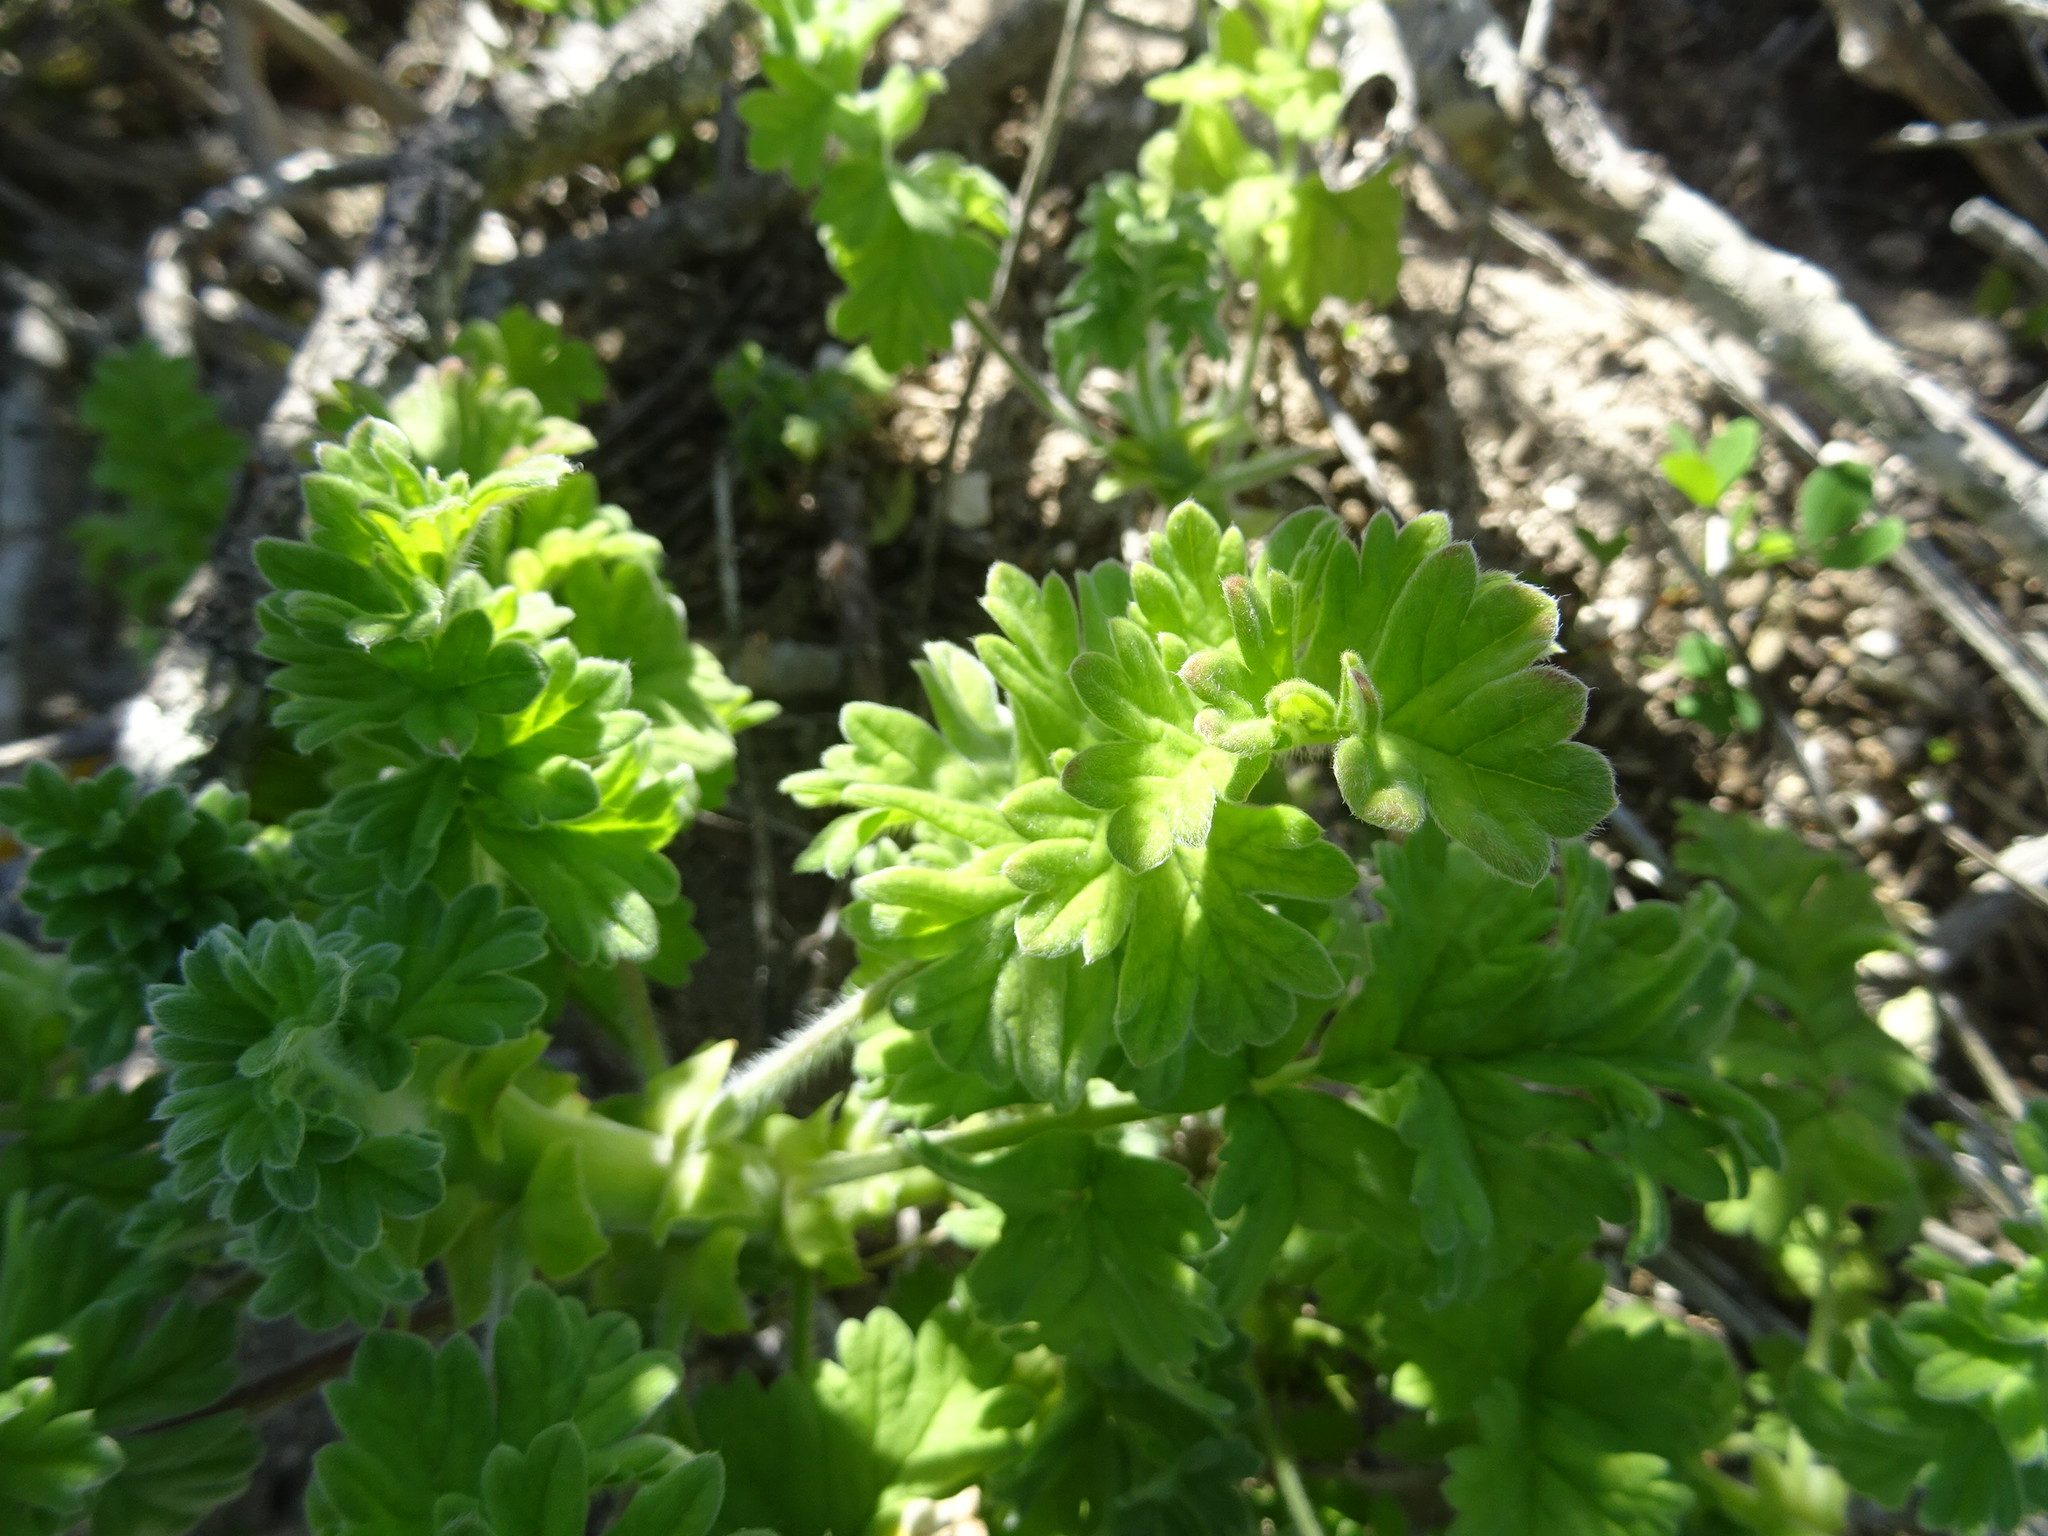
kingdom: Plantae
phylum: Tracheophyta
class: Magnoliopsida
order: Geraniales
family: Geraniaceae
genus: Pelargonium
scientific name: Pelargonium fulgidum
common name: Celandine-leaf pelargonium
